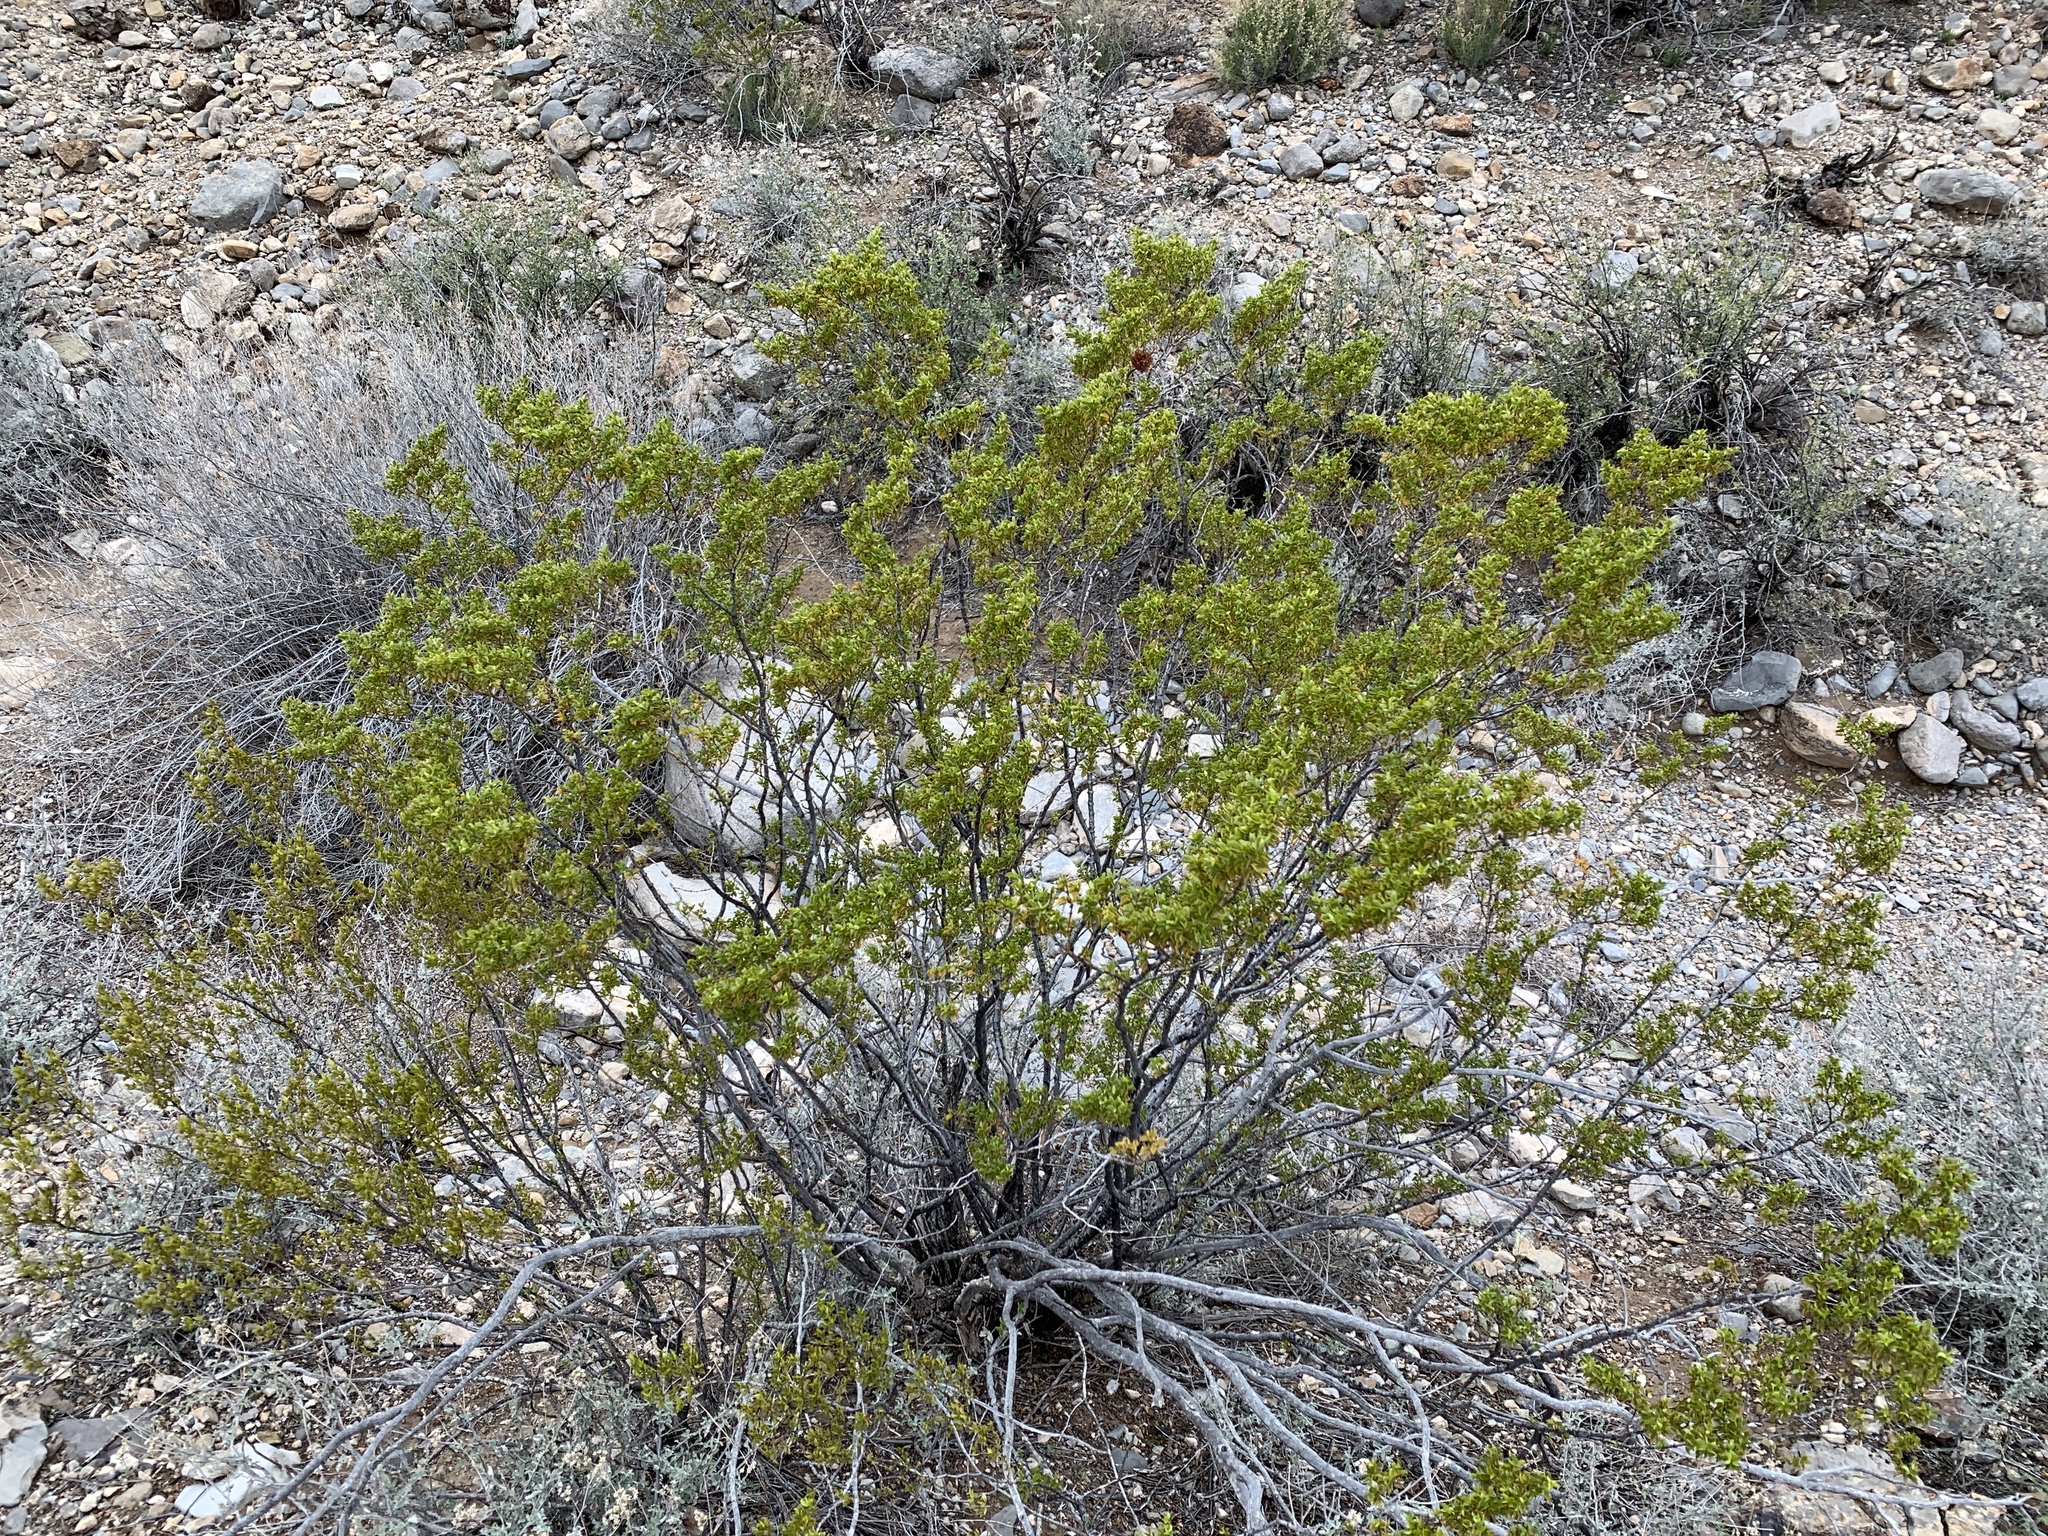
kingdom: Plantae
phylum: Tracheophyta
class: Magnoliopsida
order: Zygophyllales
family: Zygophyllaceae
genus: Larrea
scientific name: Larrea tridentata
